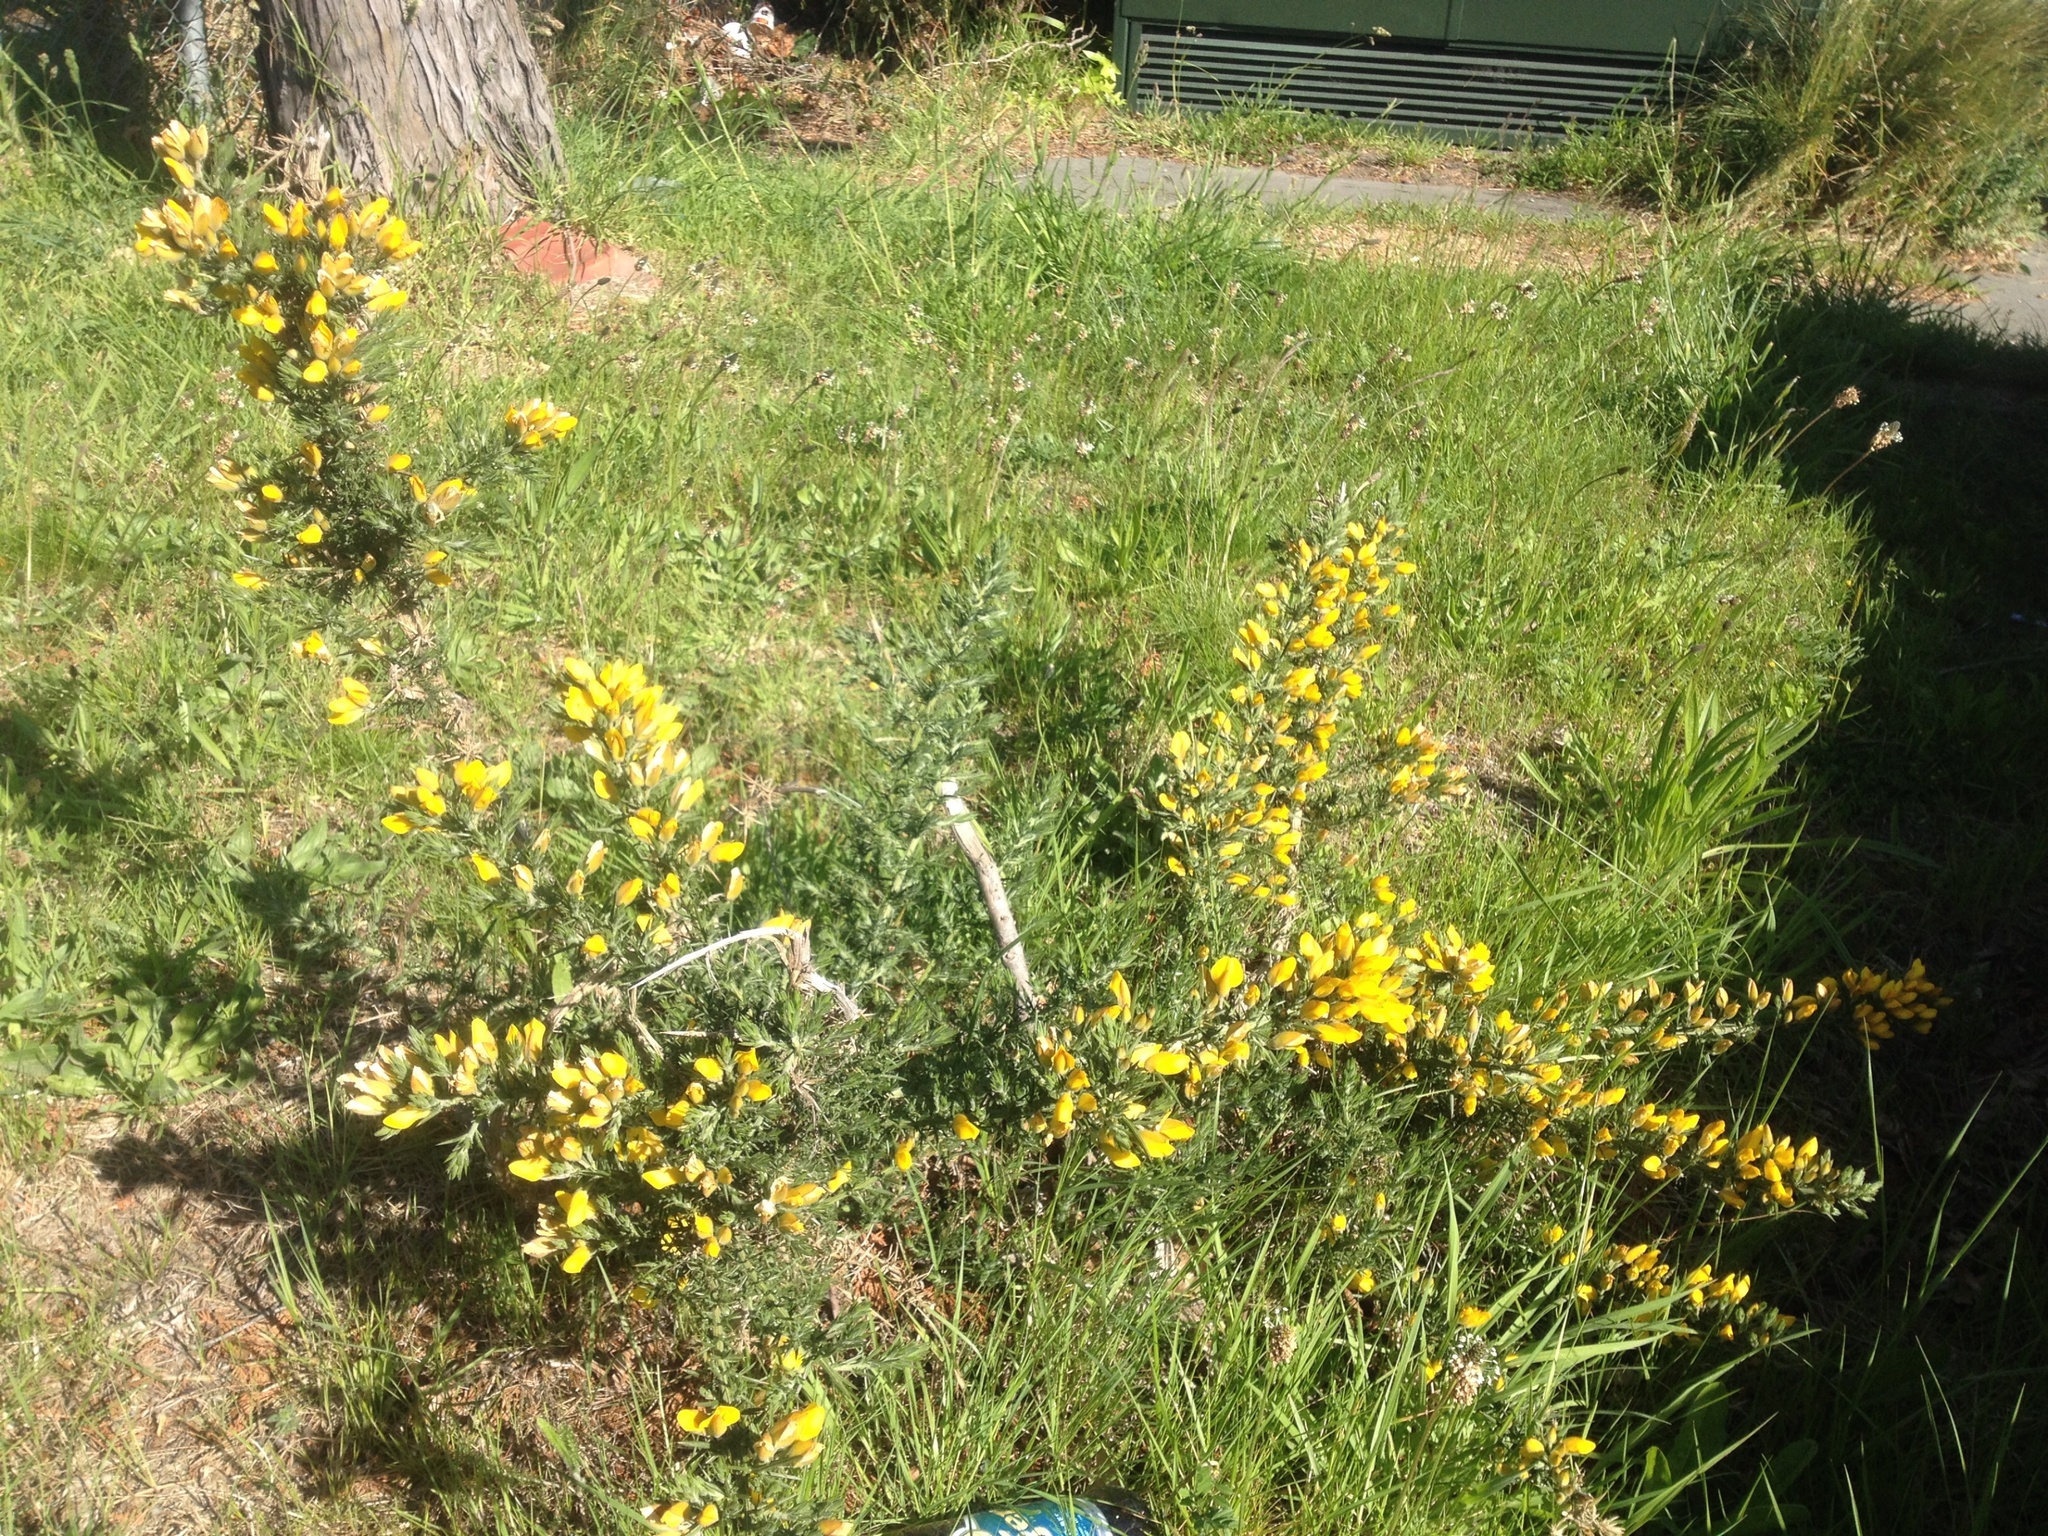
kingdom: Plantae
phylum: Tracheophyta
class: Magnoliopsida
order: Fabales
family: Fabaceae
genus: Ulex
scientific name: Ulex europaeus
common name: Common gorse
